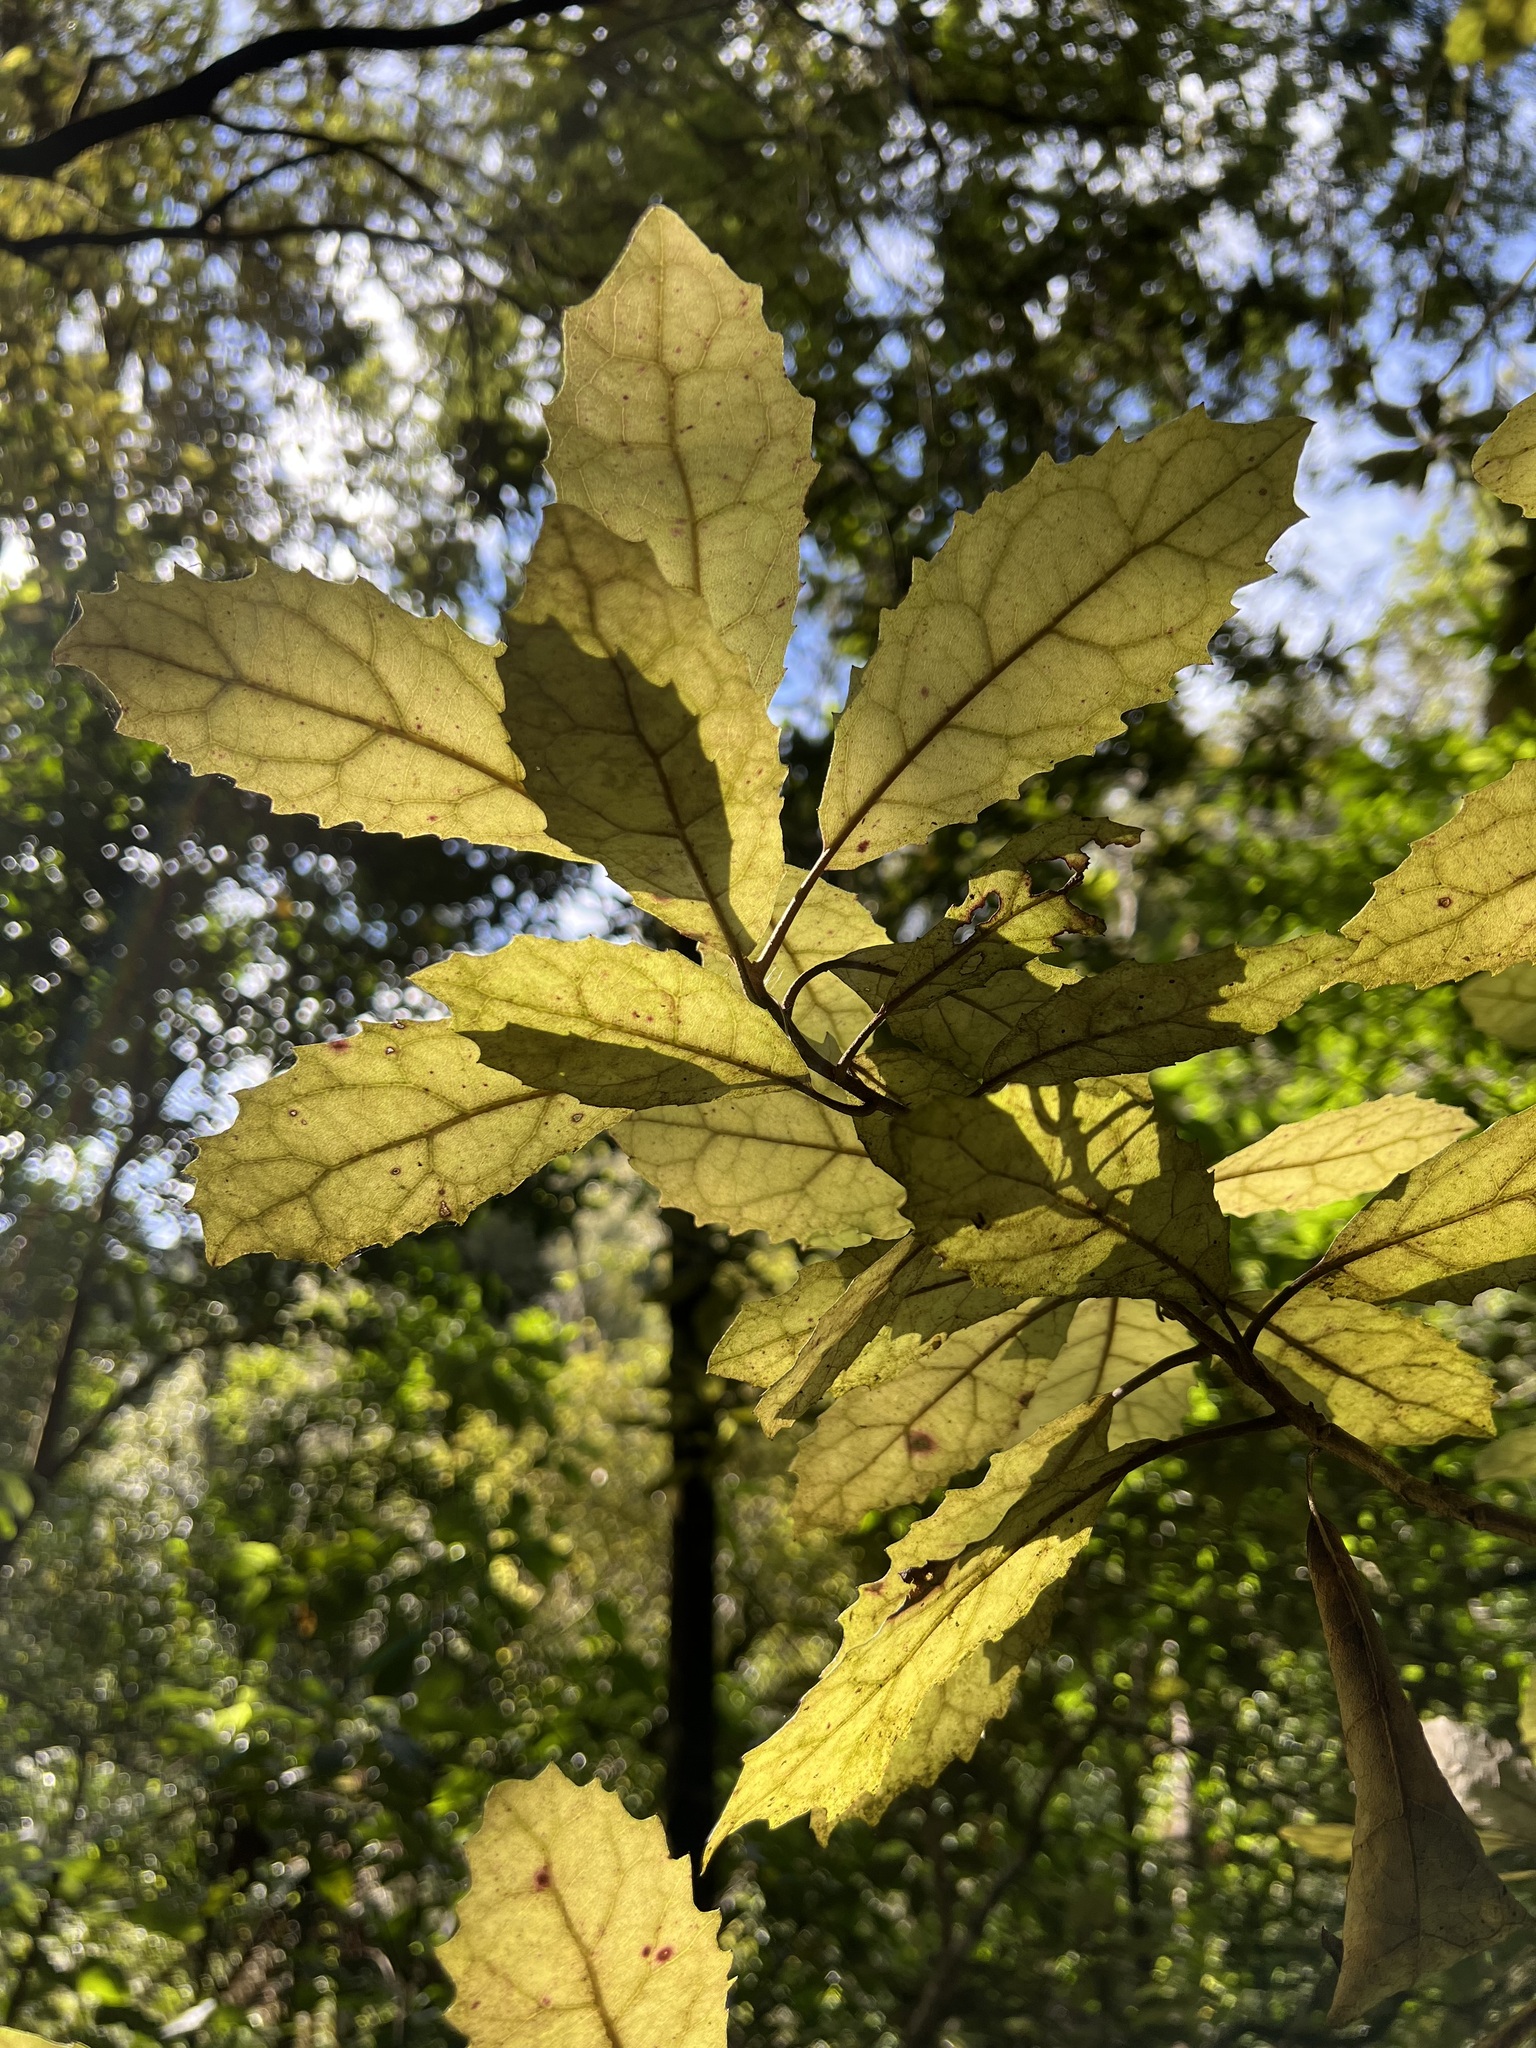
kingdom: Plantae
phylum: Tracheophyta
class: Magnoliopsida
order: Asterales
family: Asteraceae
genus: Olearia
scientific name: Olearia rani
